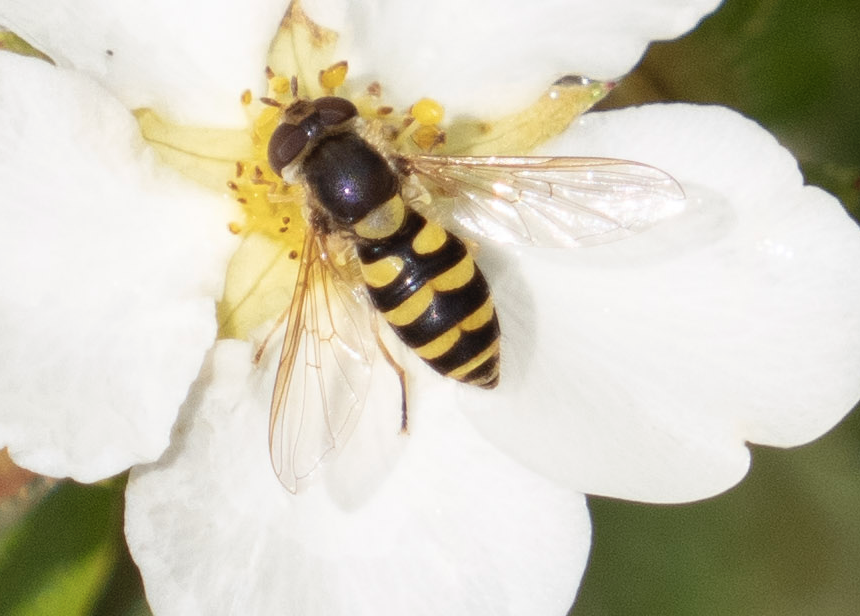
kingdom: Animalia
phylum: Arthropoda
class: Insecta
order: Diptera
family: Syrphidae
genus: Syrphus
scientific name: Syrphus ribesii
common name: Common flower fly
